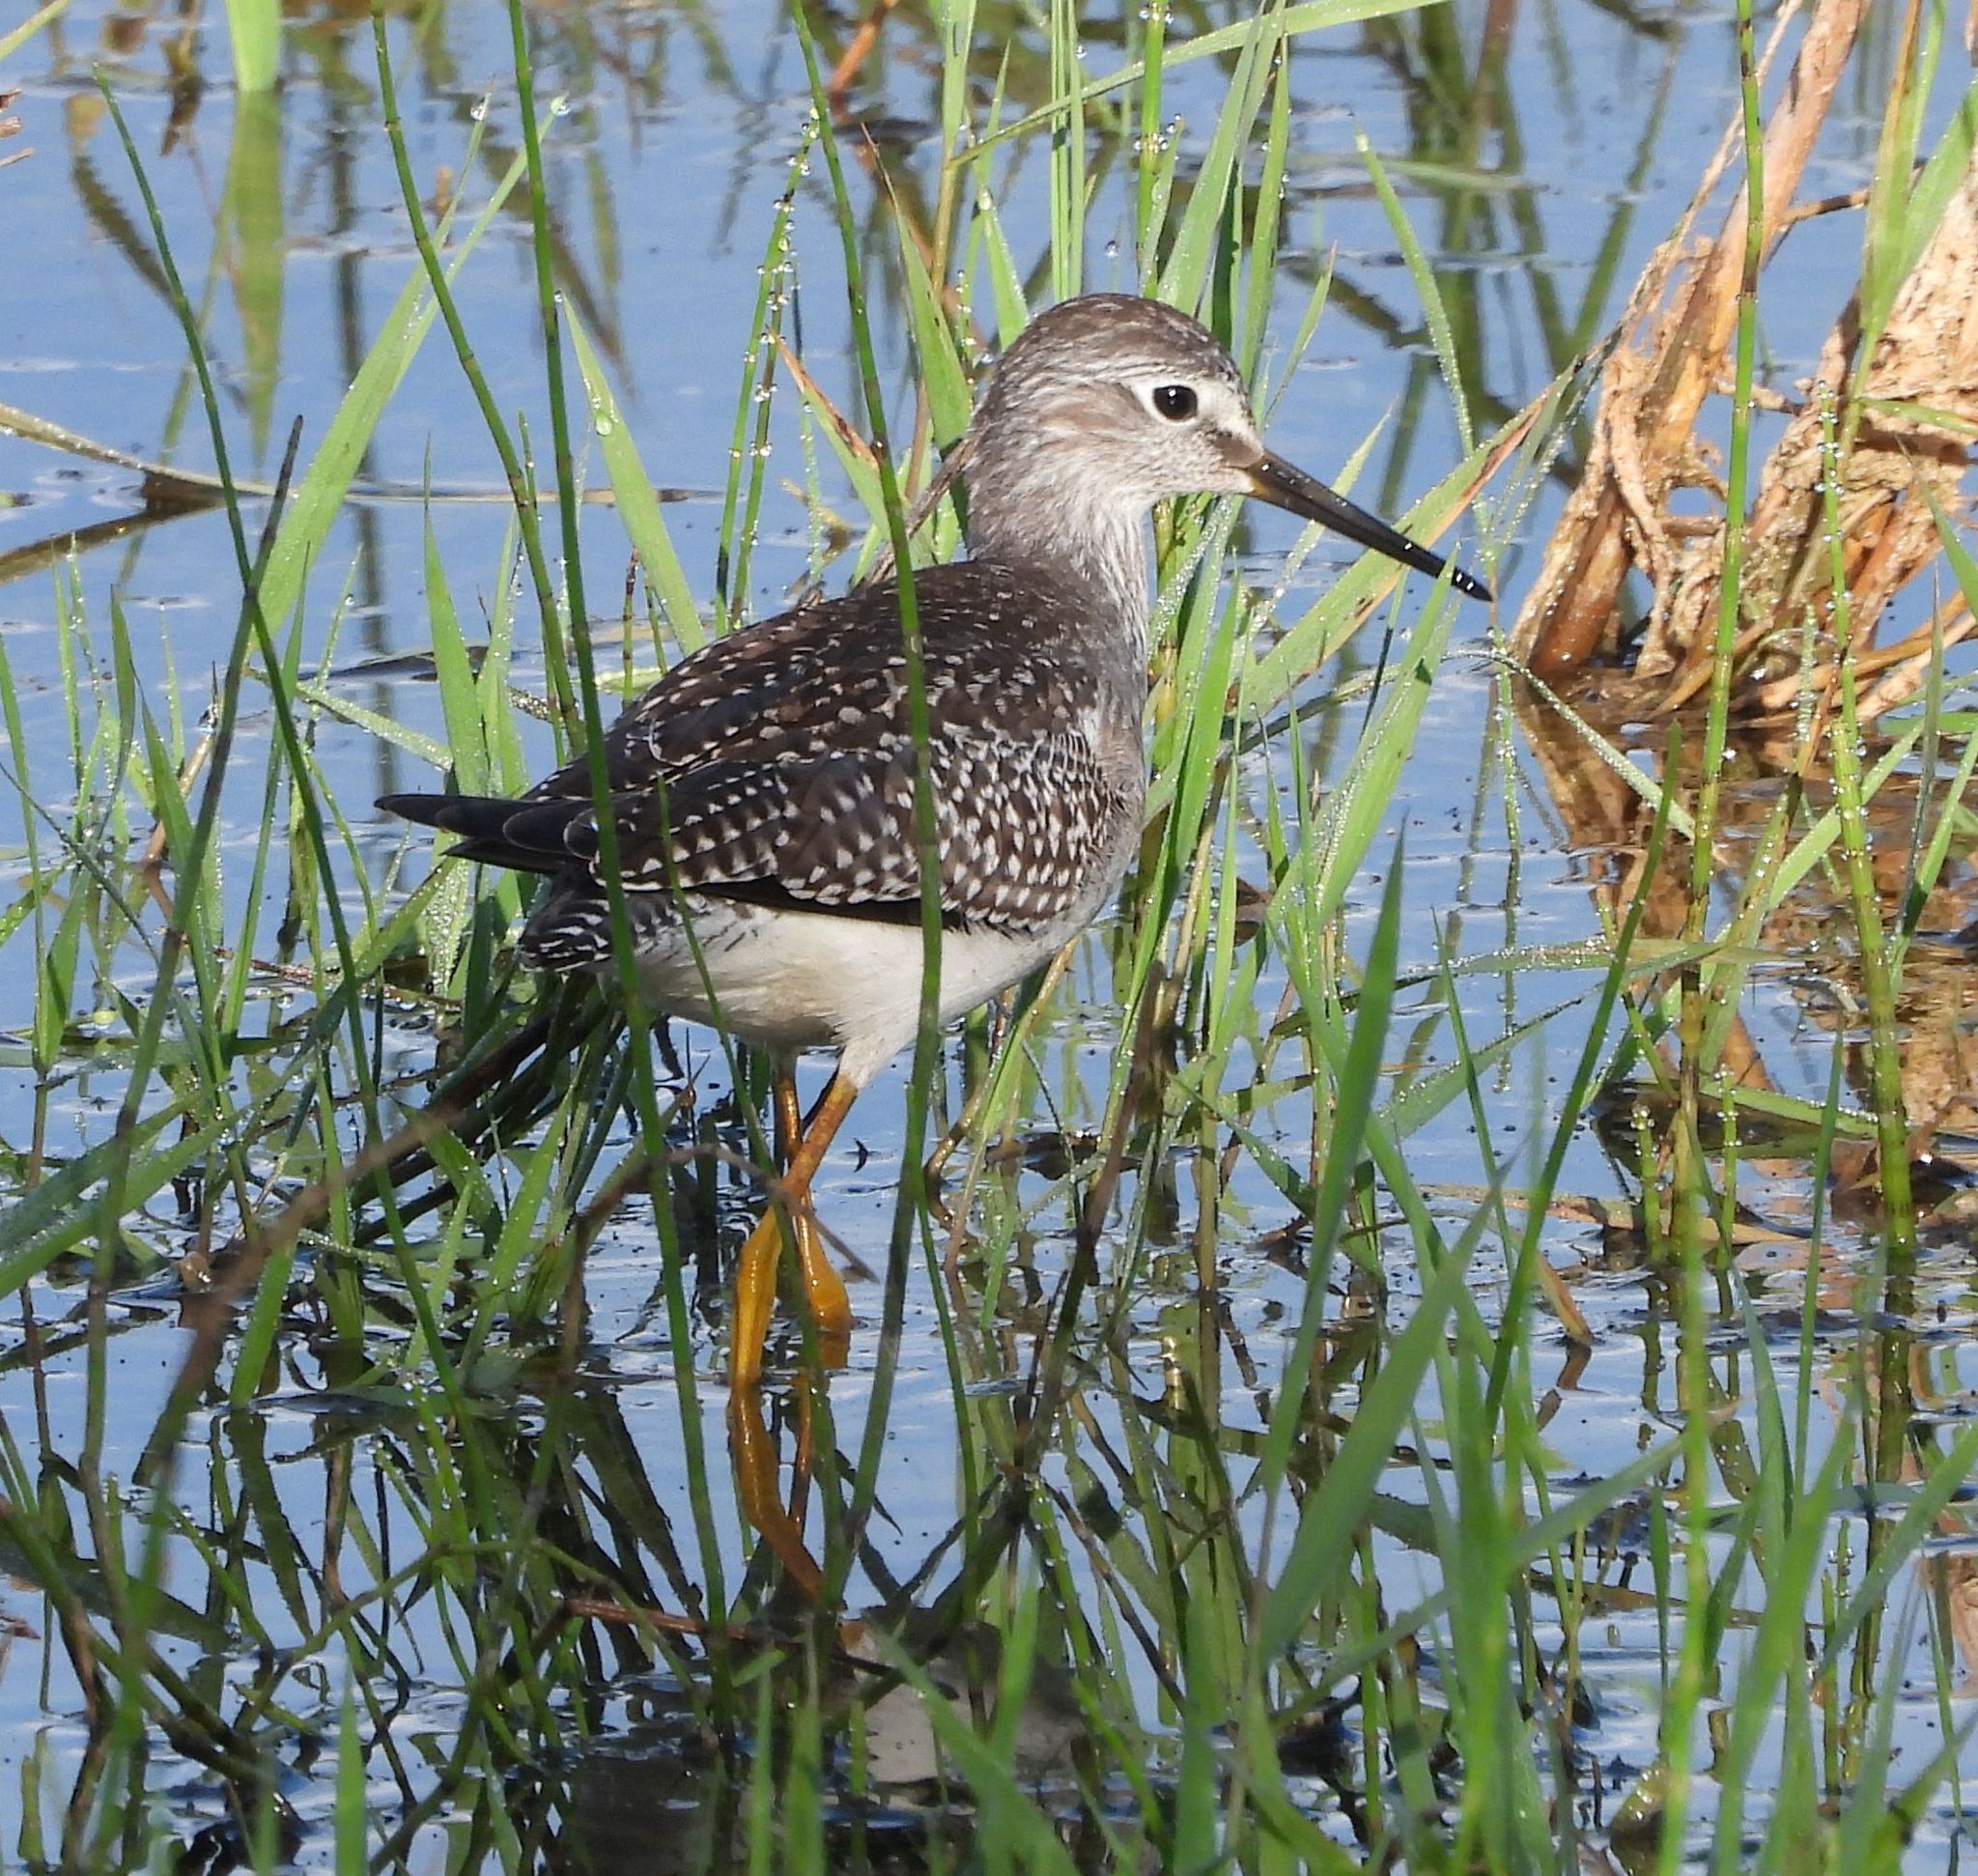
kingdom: Animalia
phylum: Chordata
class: Aves
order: Charadriiformes
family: Scolopacidae
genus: Tringa
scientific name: Tringa flavipes
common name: Lesser yellowlegs
